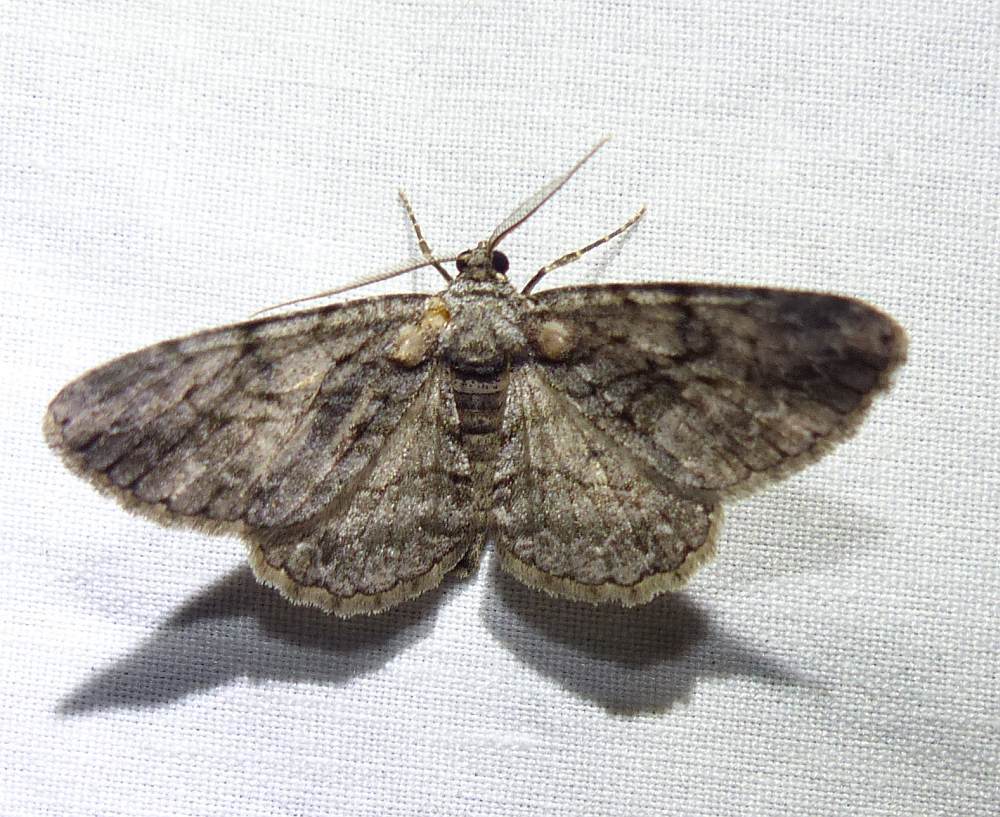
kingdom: Animalia
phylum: Arthropoda
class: Insecta
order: Lepidoptera
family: Geometridae
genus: Anavitrinella
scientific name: Anavitrinella pampinaria
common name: Common gray
